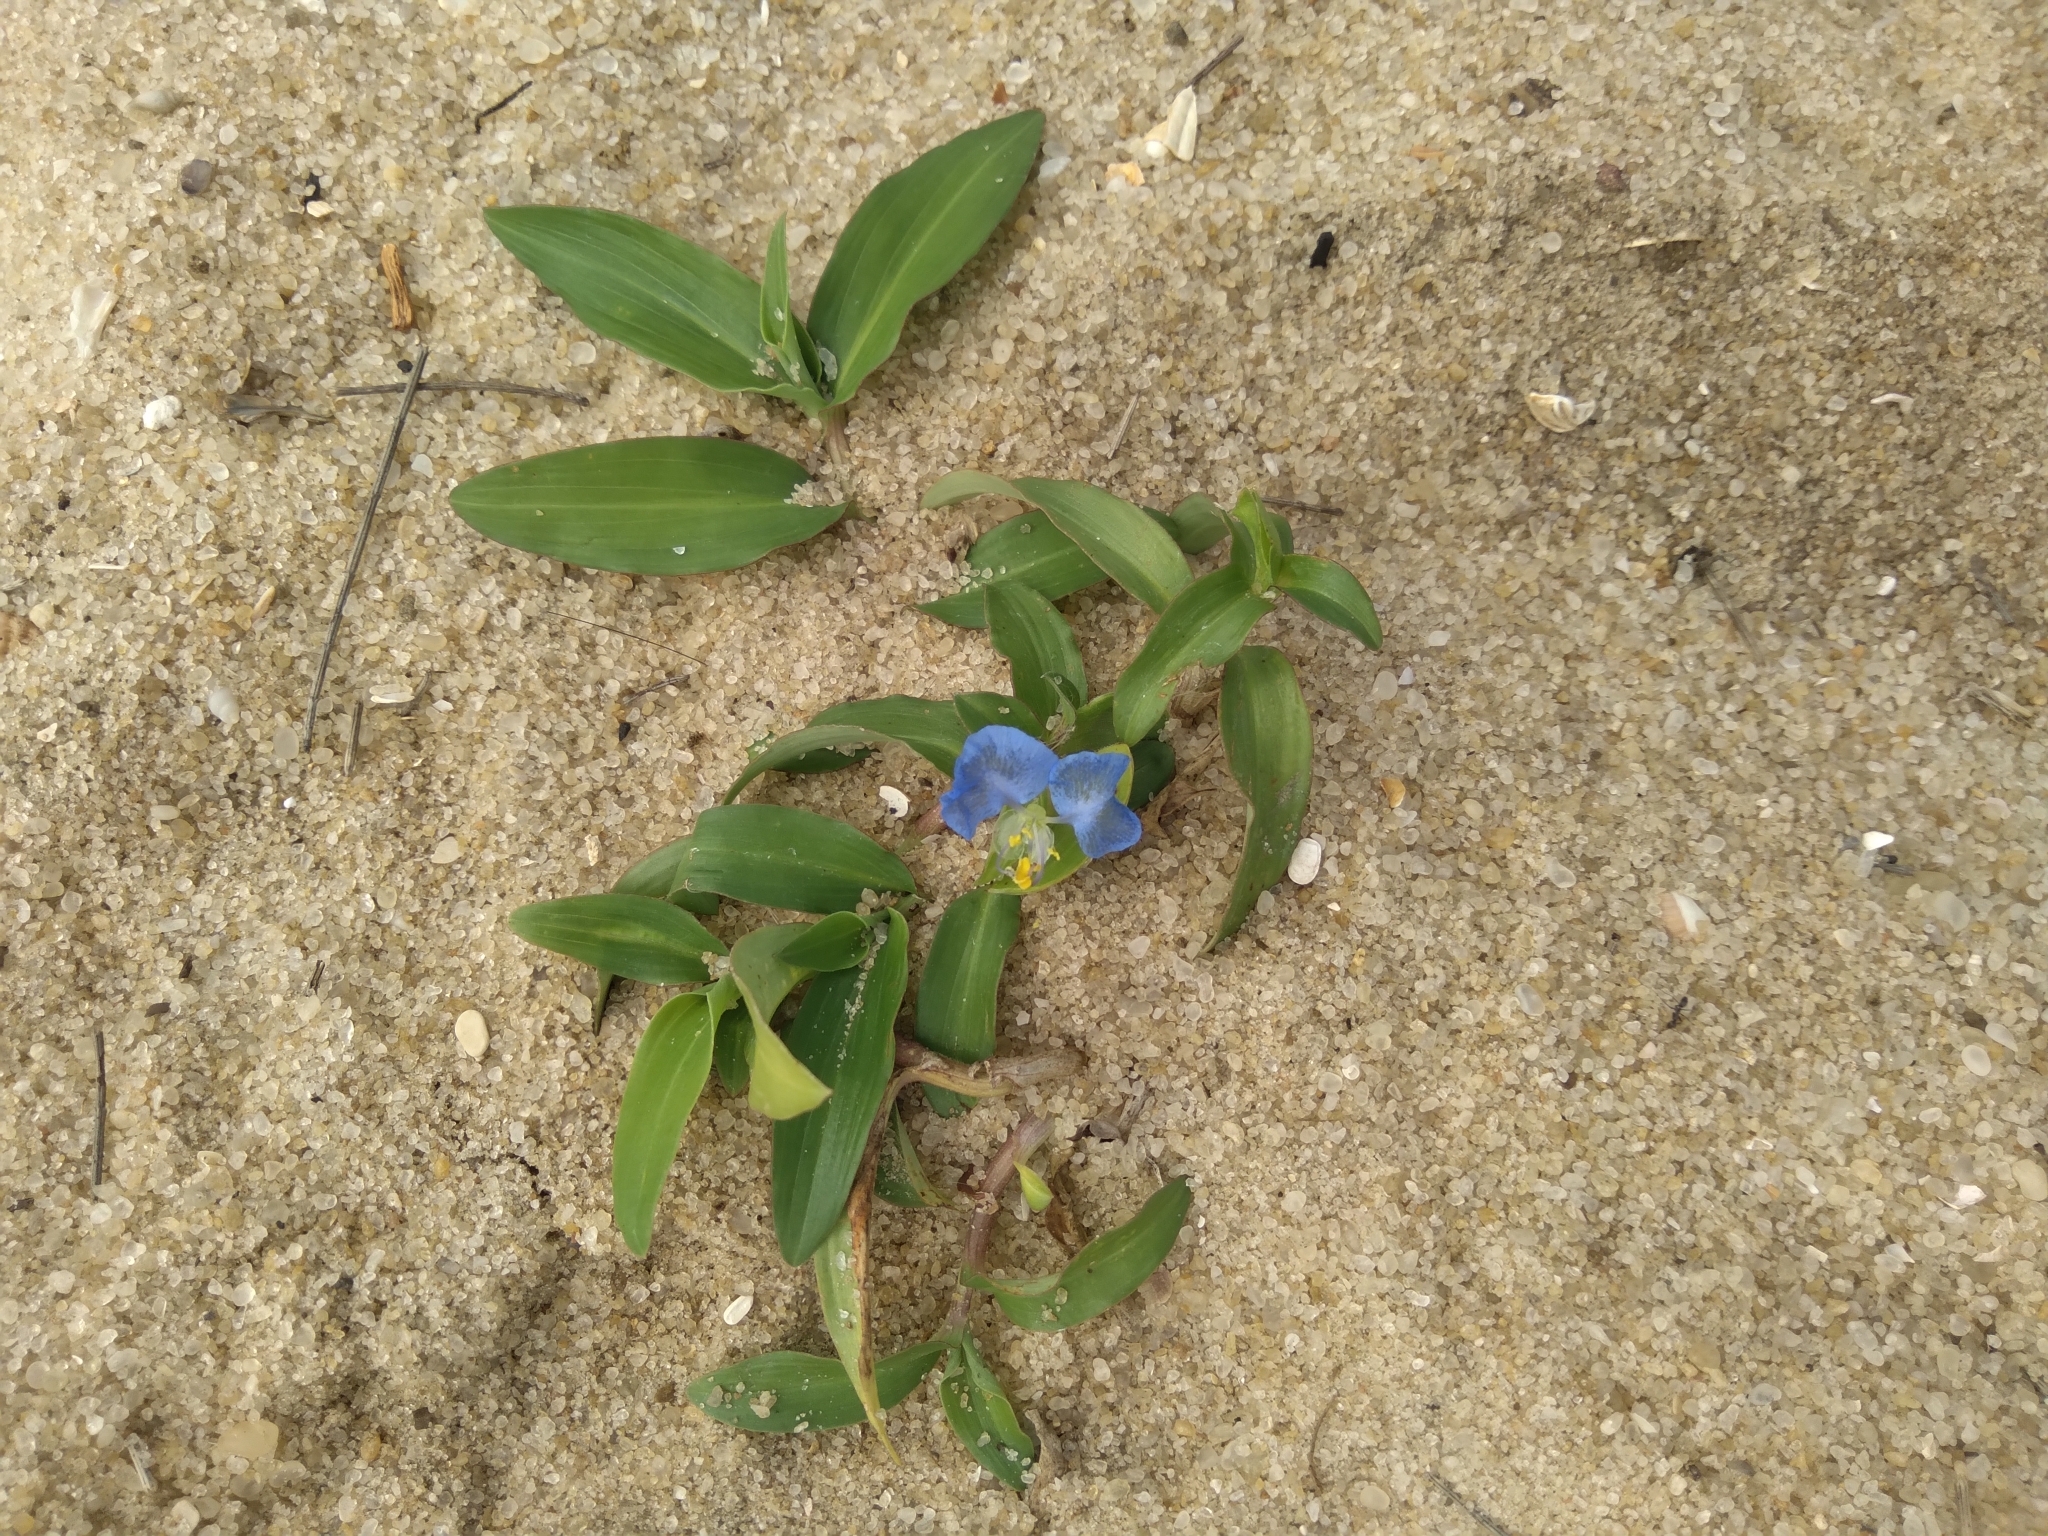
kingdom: Plantae
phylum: Tracheophyta
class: Liliopsida
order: Commelinales
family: Commelinaceae
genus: Commelina
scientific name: Commelina erecta
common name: Blousel blommetjie
